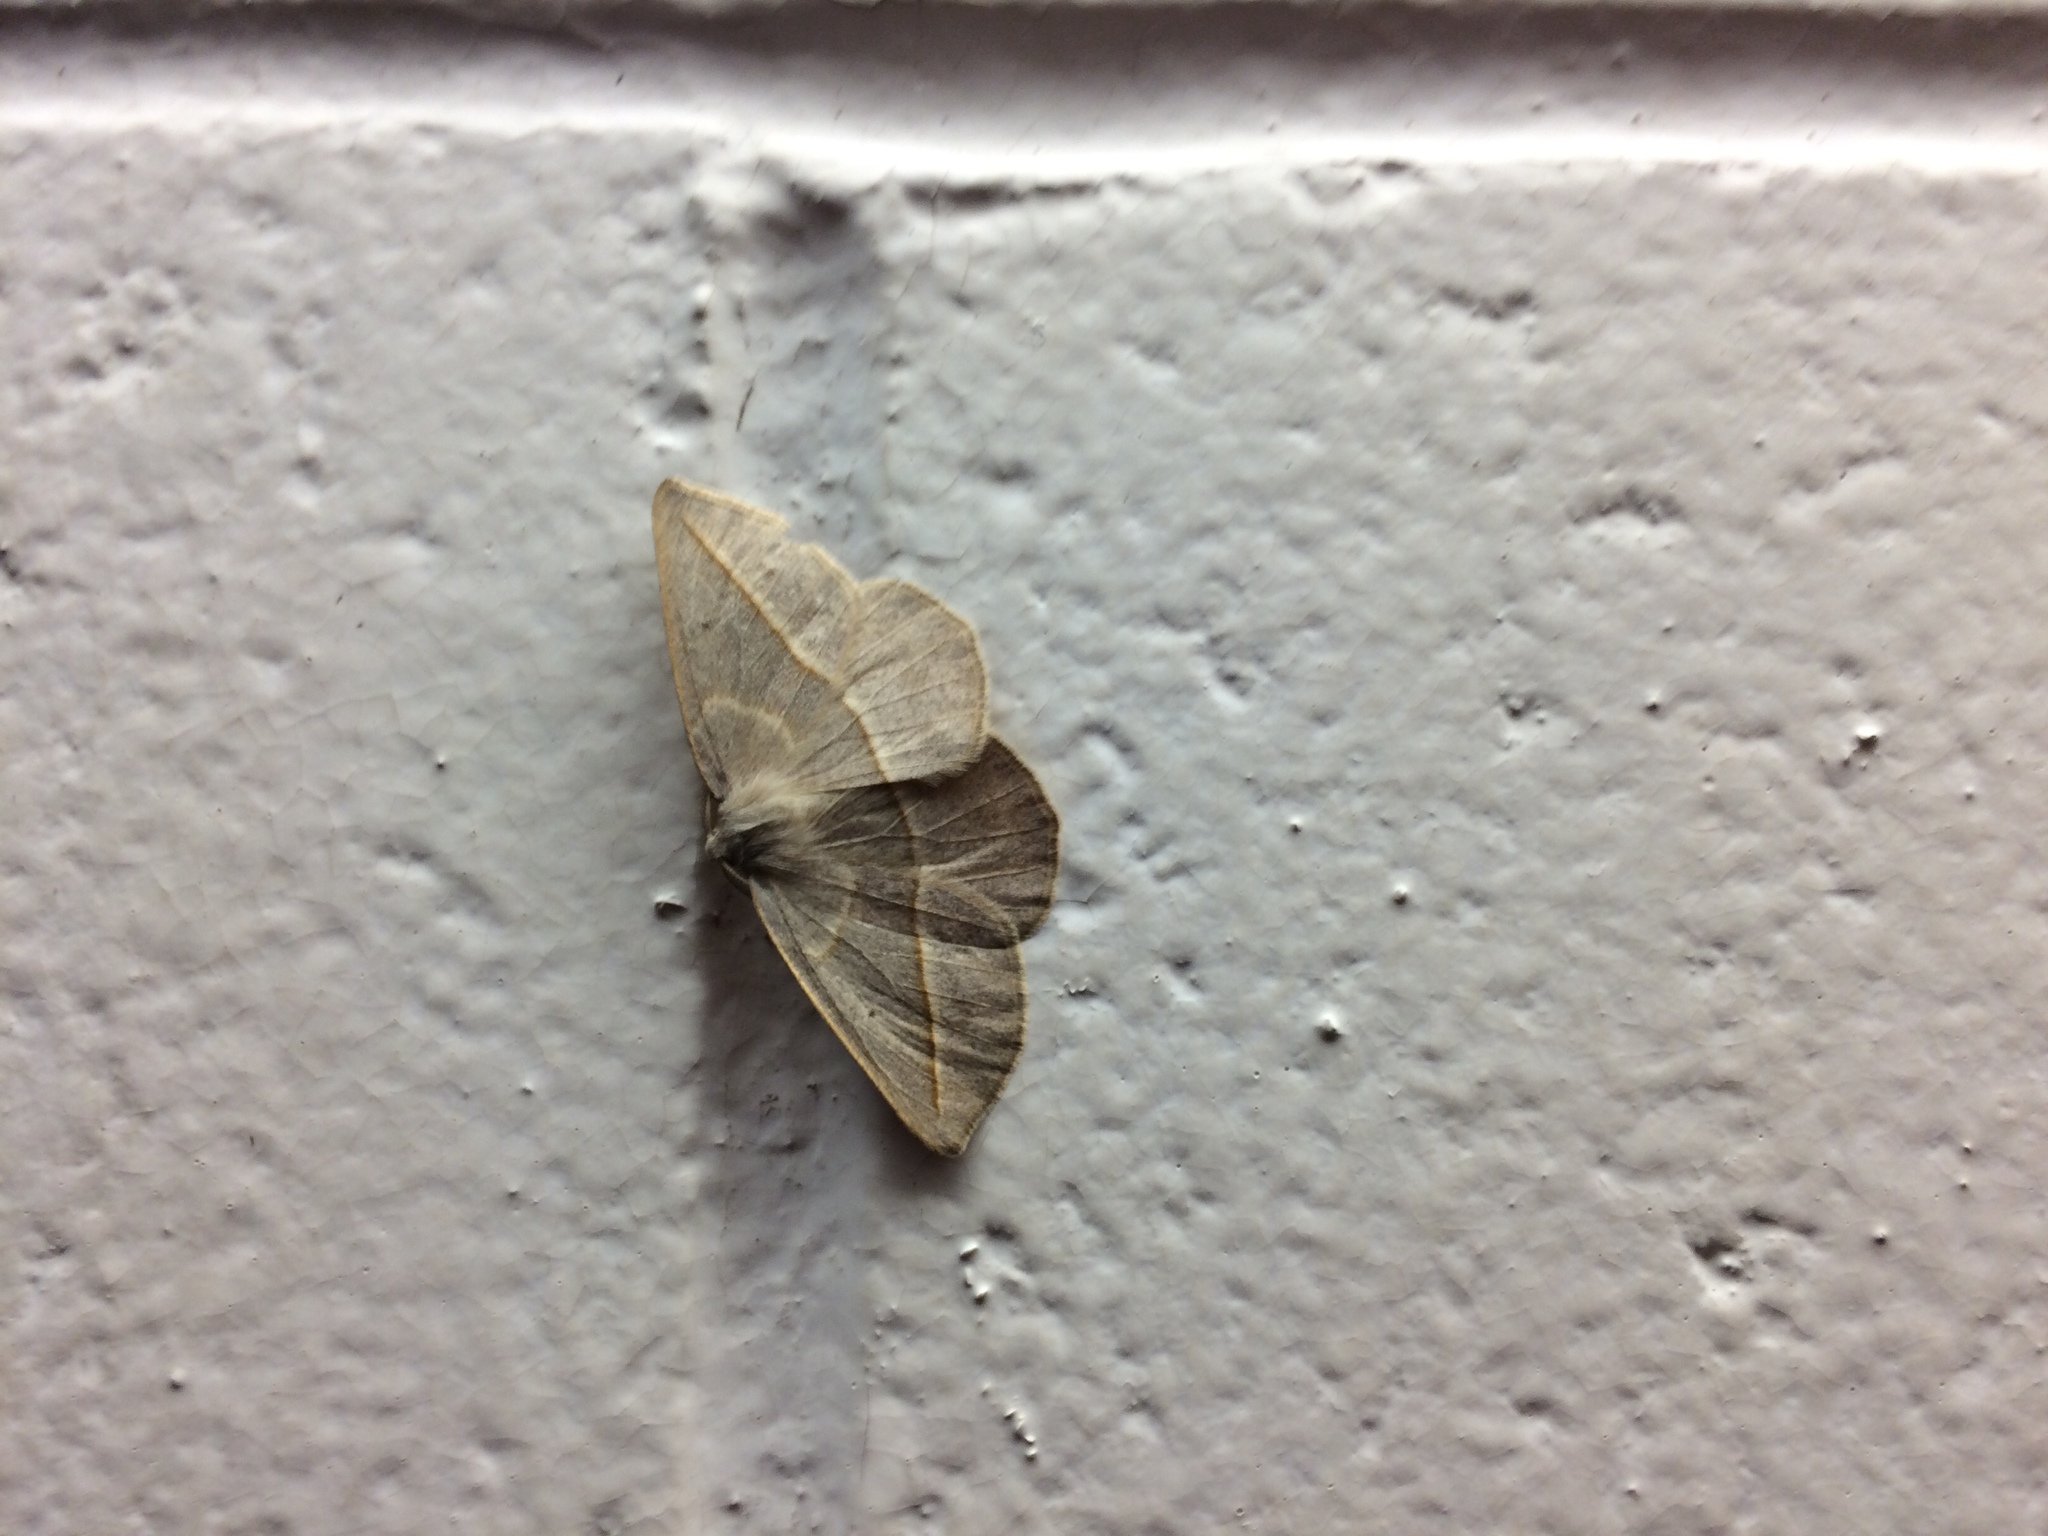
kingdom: Animalia
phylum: Arthropoda
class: Insecta
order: Lepidoptera
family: Geometridae
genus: Eusarca
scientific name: Eusarca confusaria
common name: Confused eusarca
